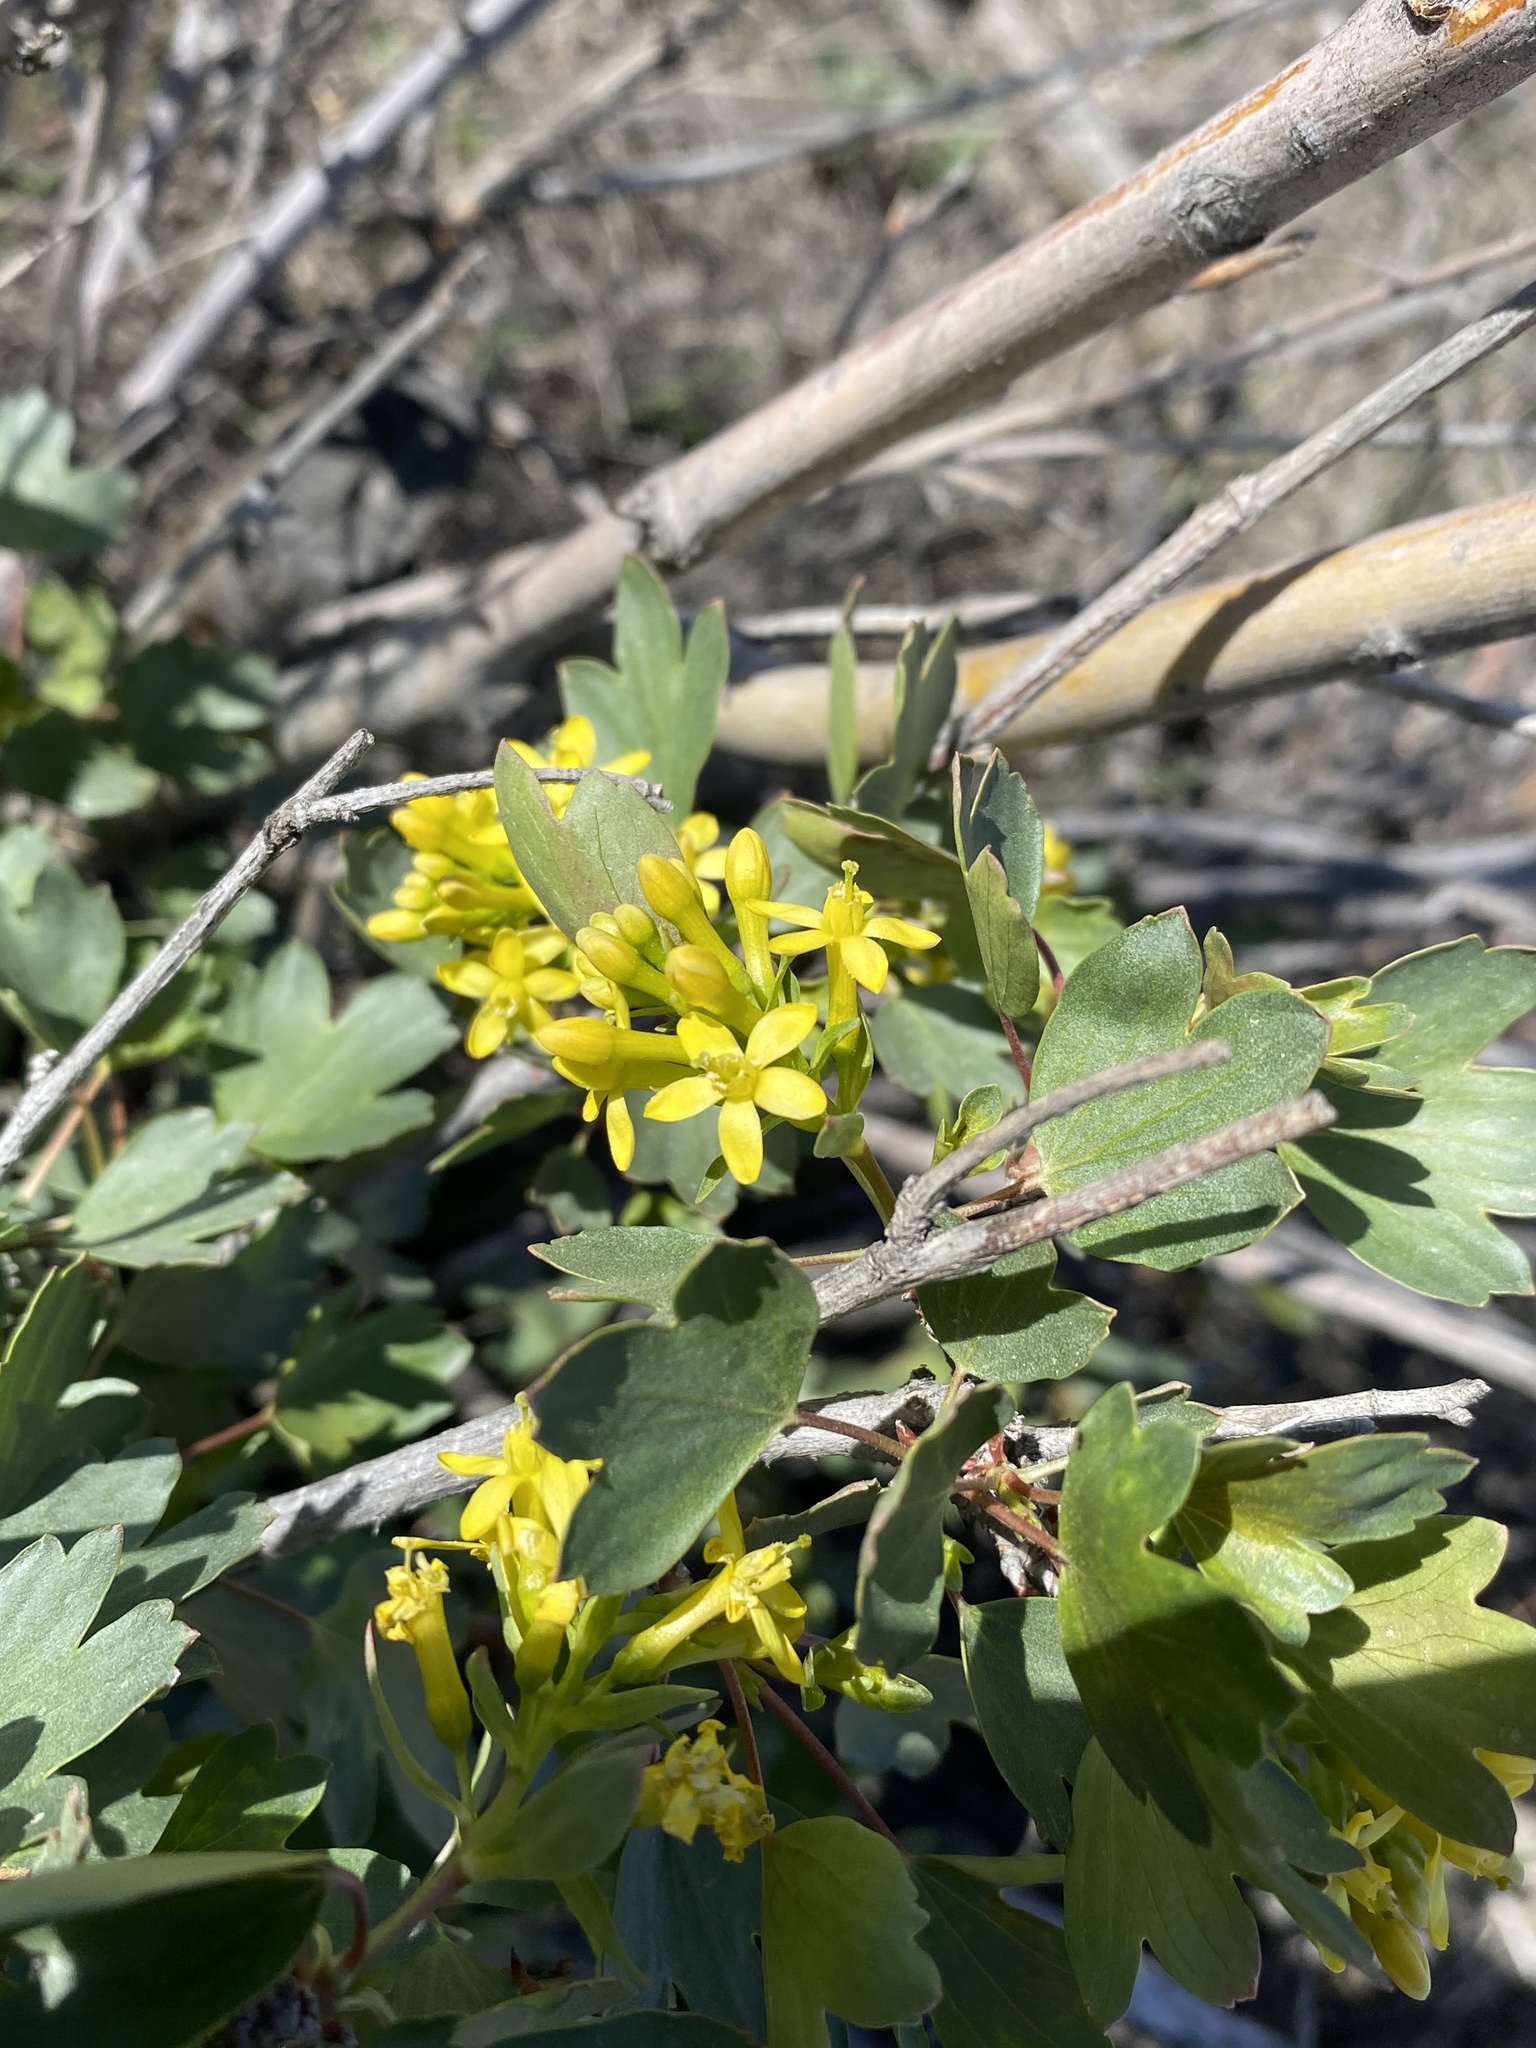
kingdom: Plantae
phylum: Tracheophyta
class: Magnoliopsida
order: Saxifragales
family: Grossulariaceae
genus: Ribes
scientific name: Ribes aureum
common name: Golden currant
